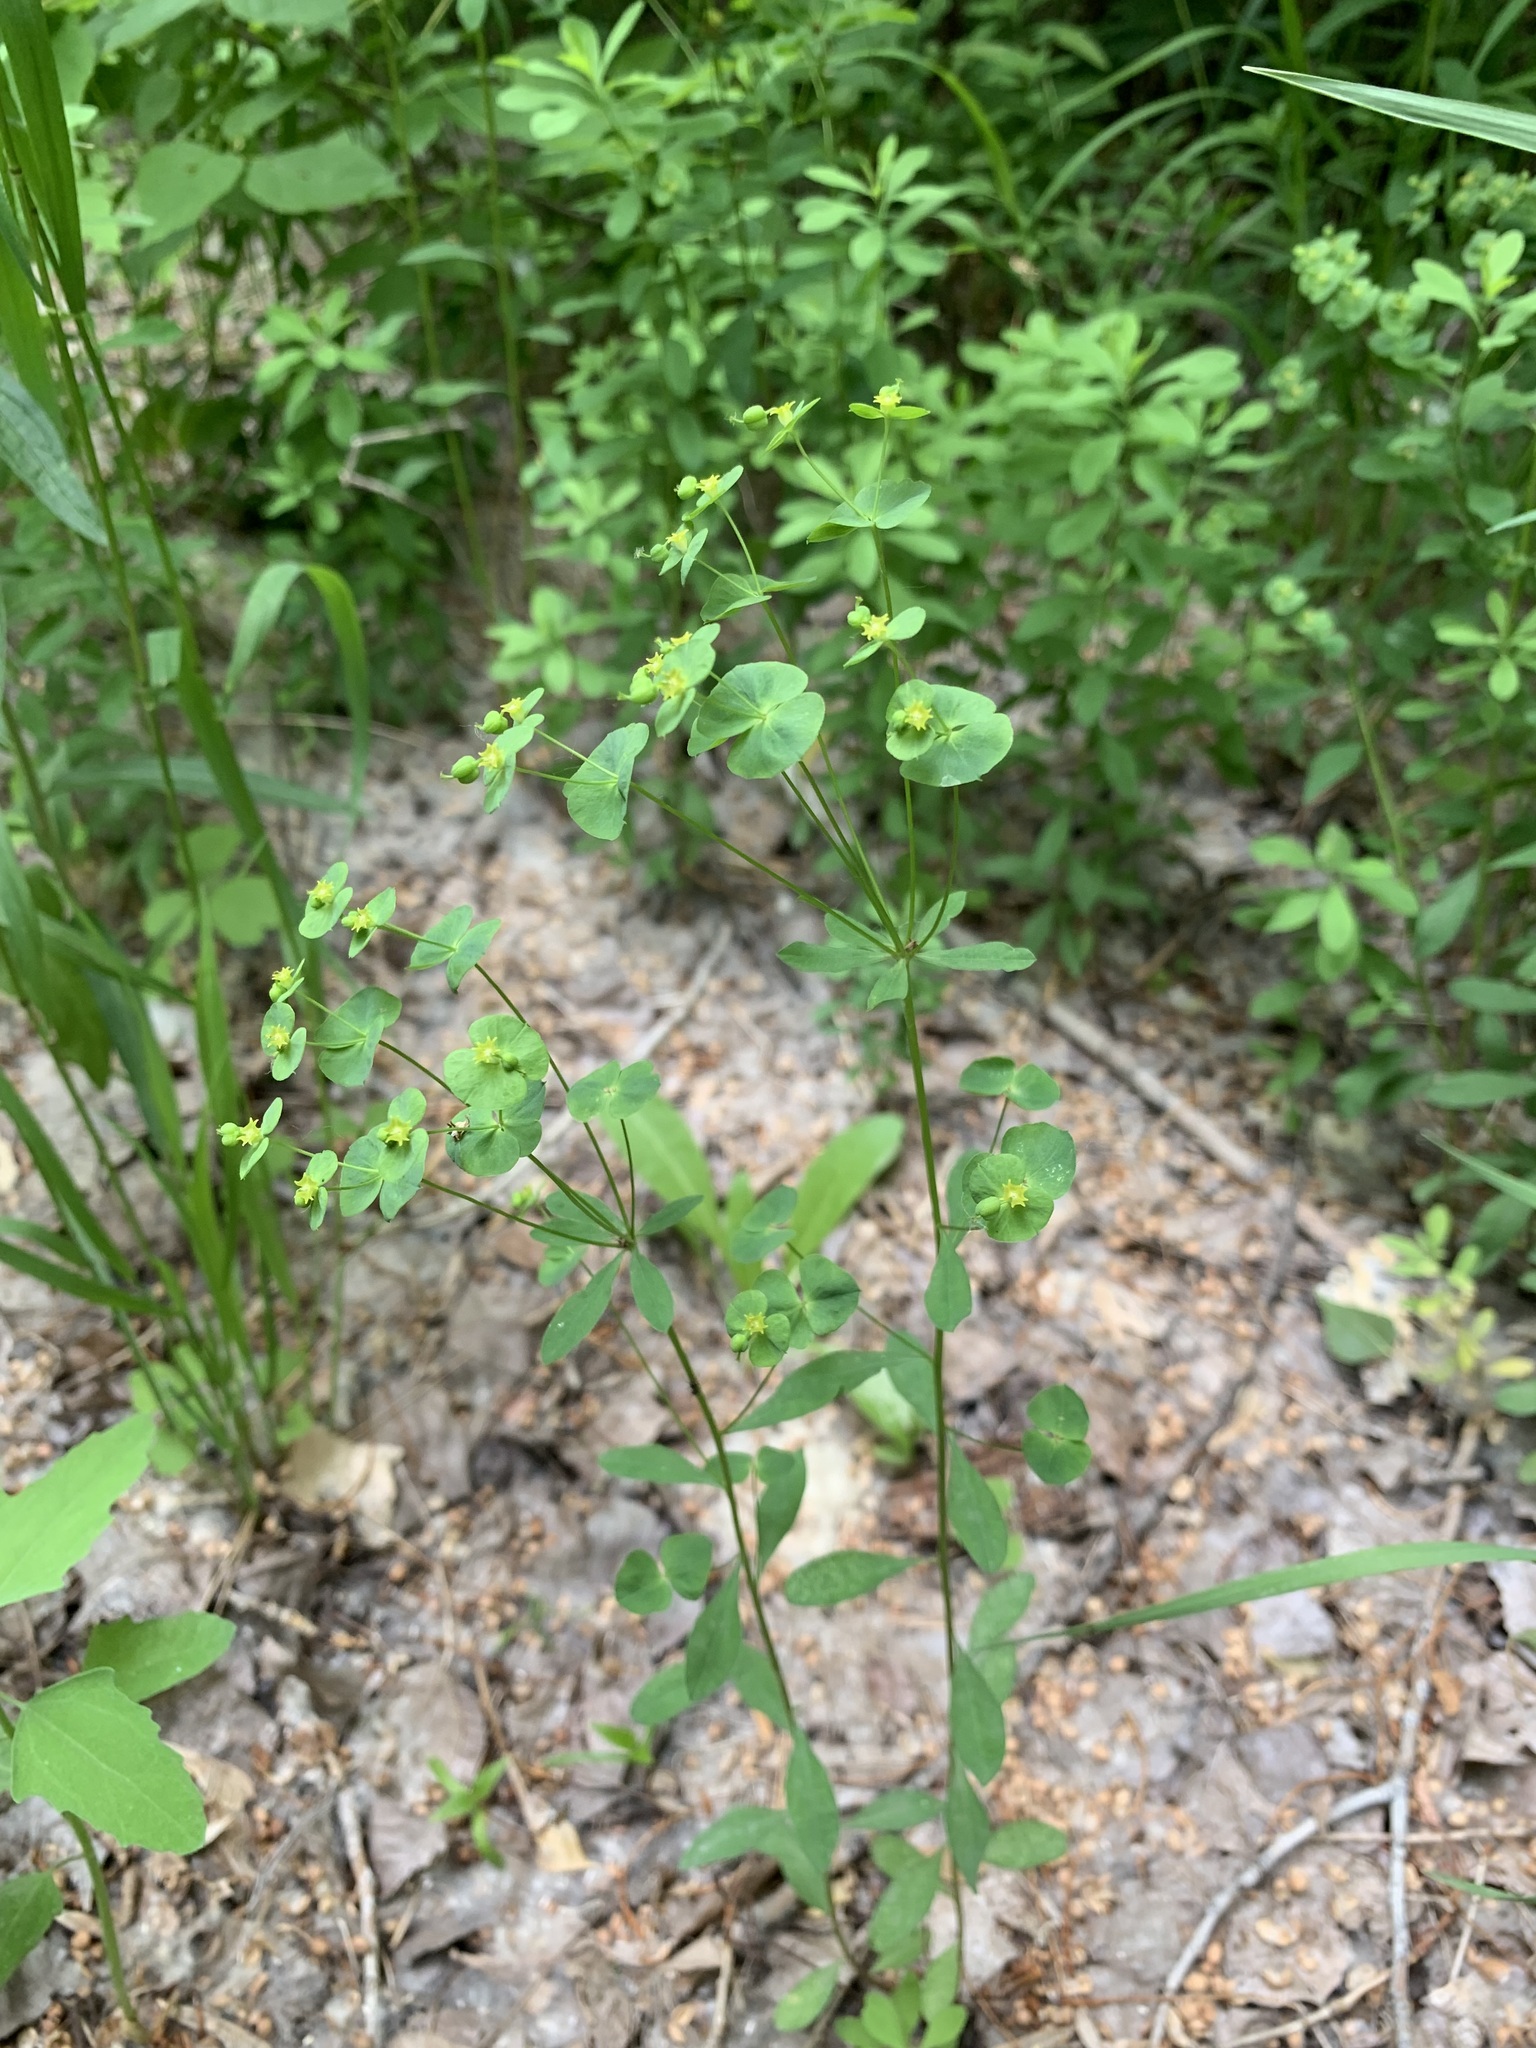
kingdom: Plantae
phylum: Tracheophyta
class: Magnoliopsida
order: Malpighiales
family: Euphorbiaceae
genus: Euphorbia
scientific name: Euphorbia korshinskyi
